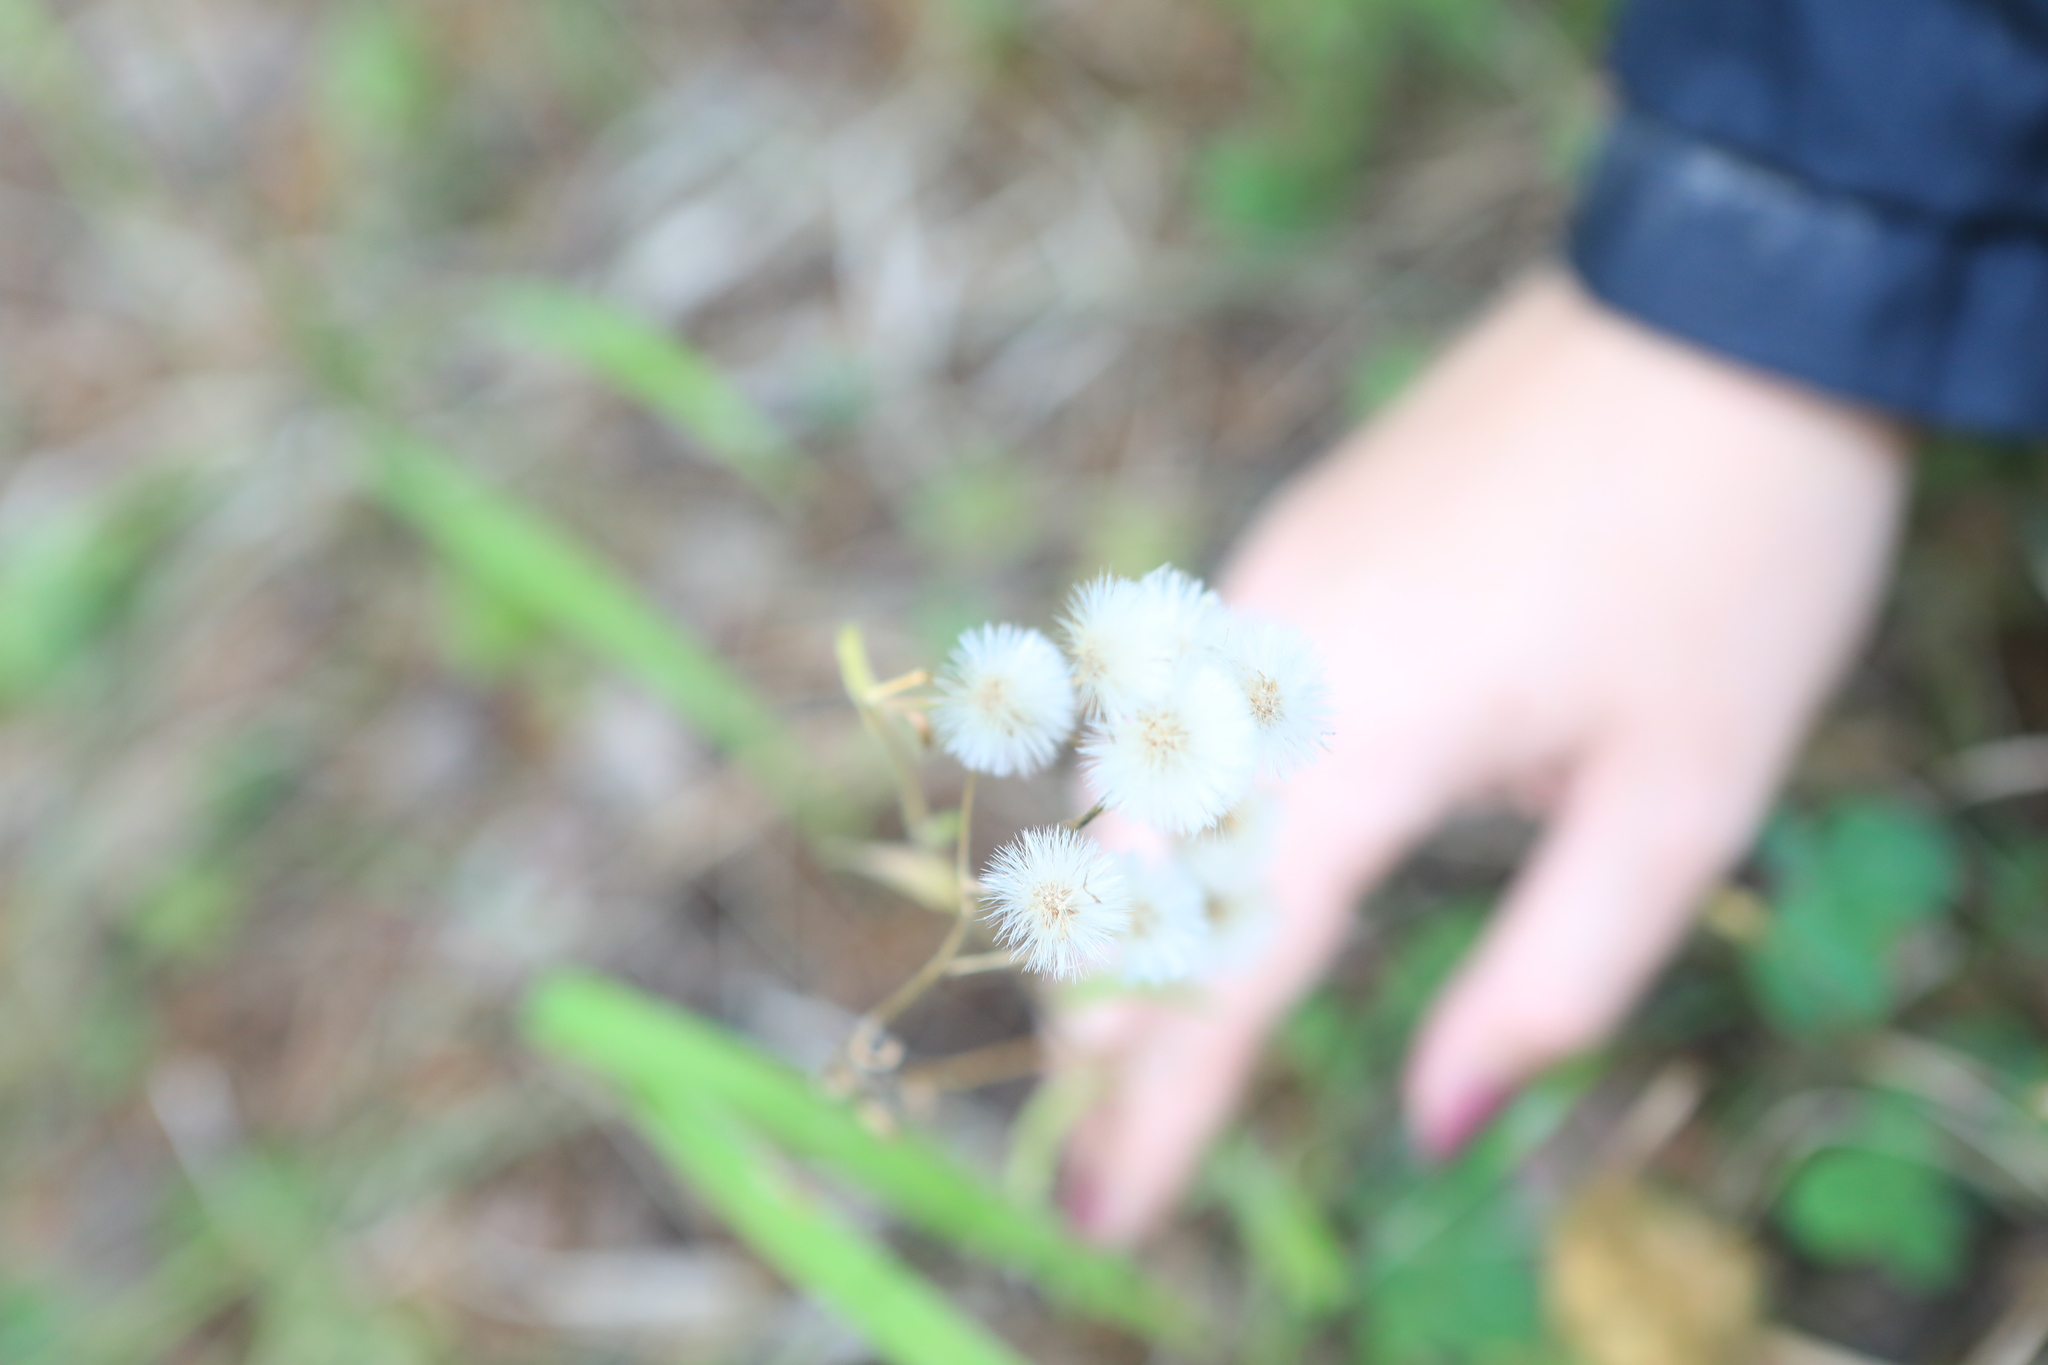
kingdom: Plantae
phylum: Tracheophyta
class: Magnoliopsida
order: Asterales
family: Asteraceae
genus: Erigeron
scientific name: Erigeron acris
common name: Blue fleabane
